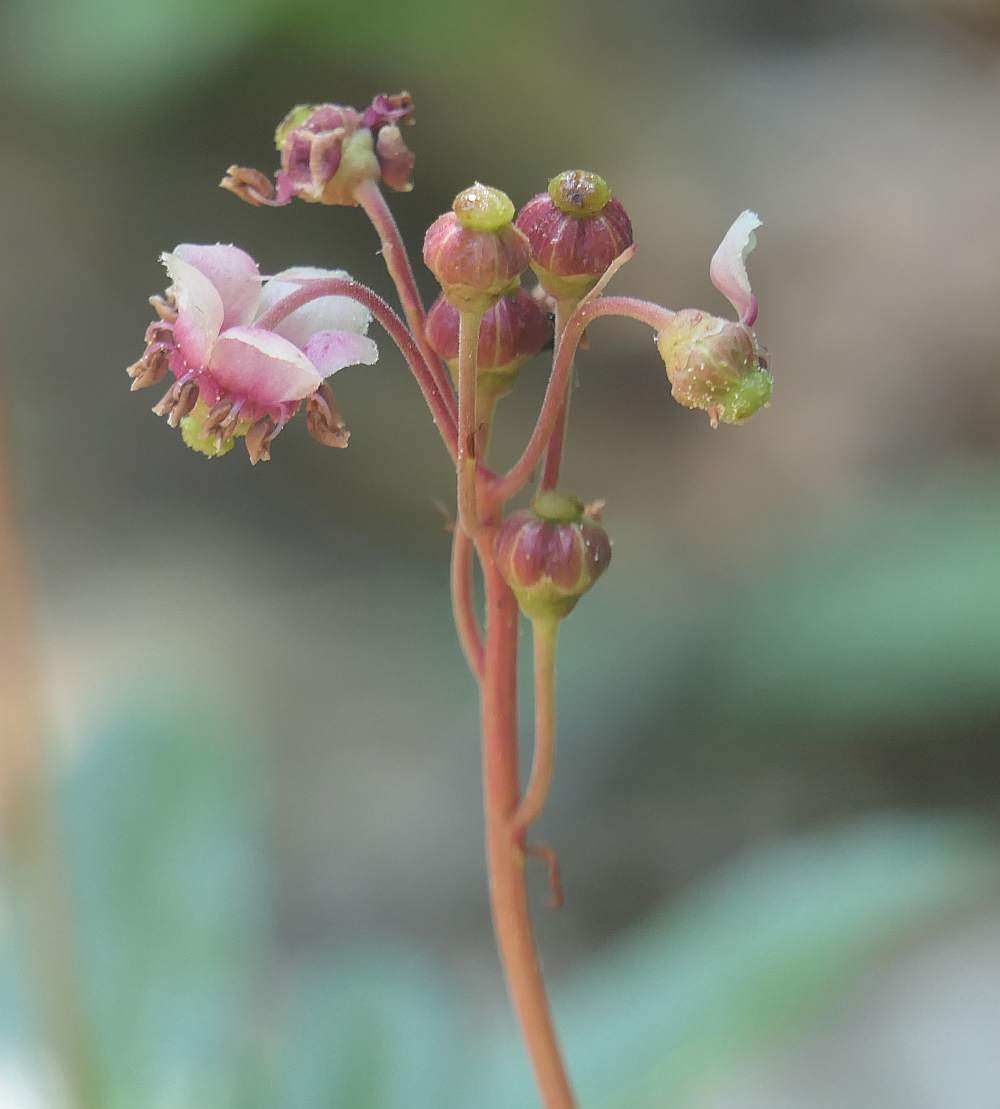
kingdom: Plantae
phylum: Tracheophyta
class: Magnoliopsida
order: Ericales
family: Ericaceae
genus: Chimaphila
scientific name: Chimaphila umbellata
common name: Pipsissewa
